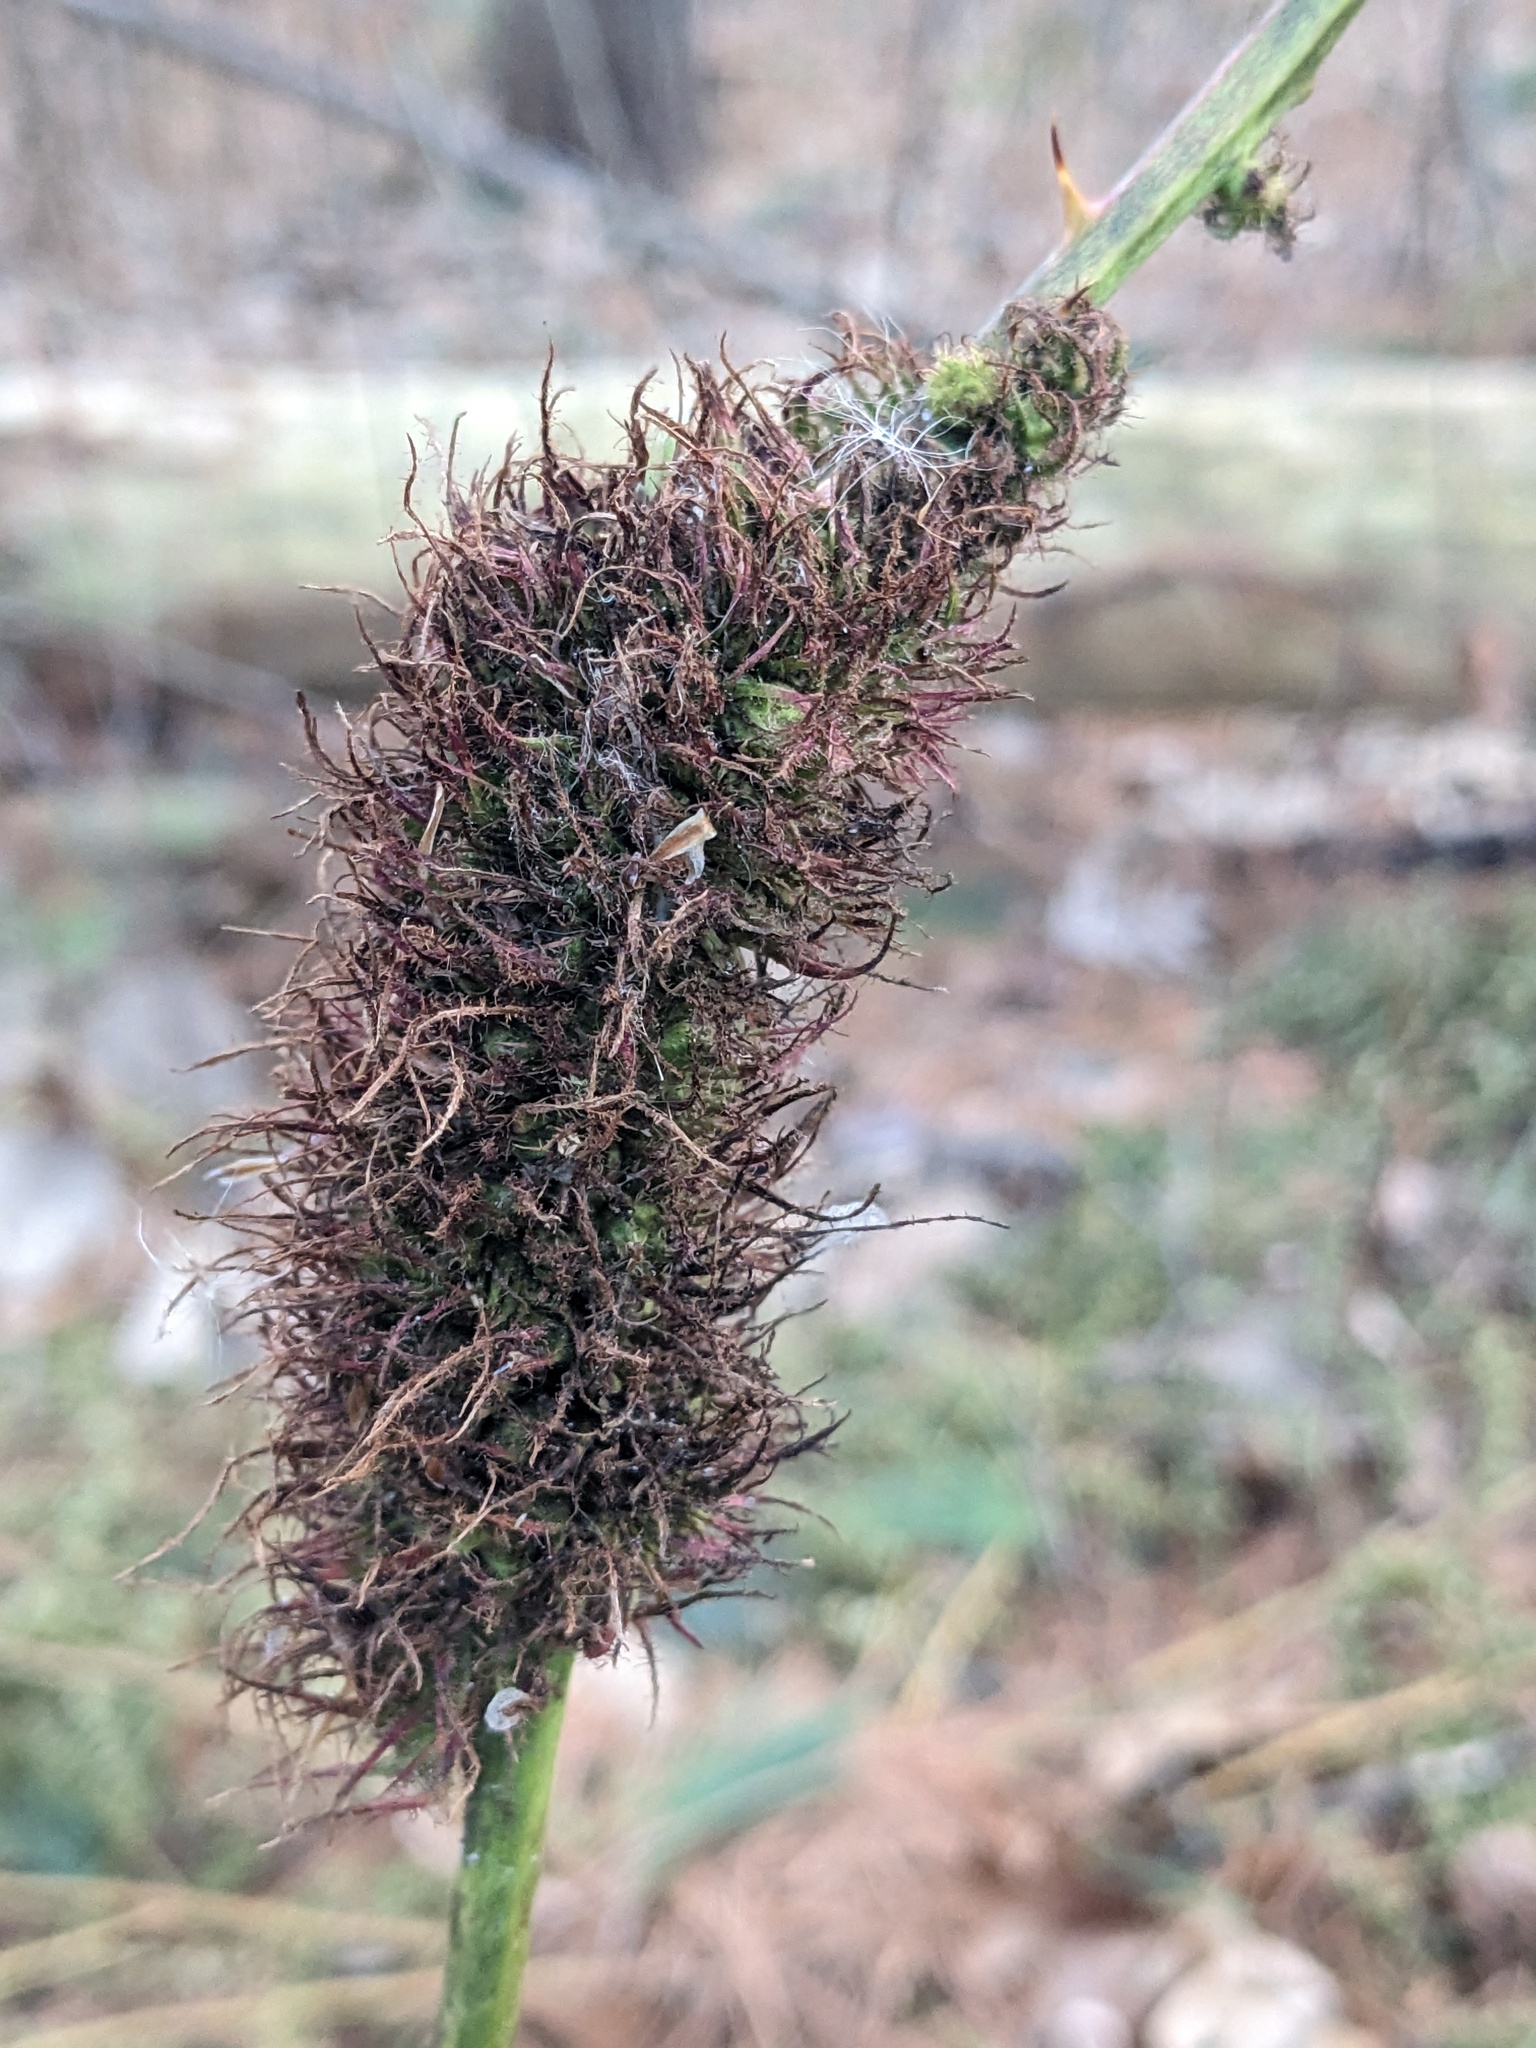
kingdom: Animalia
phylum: Arthropoda
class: Insecta
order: Hymenoptera
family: Cynipidae
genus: Diastrophus
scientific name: Diastrophus
